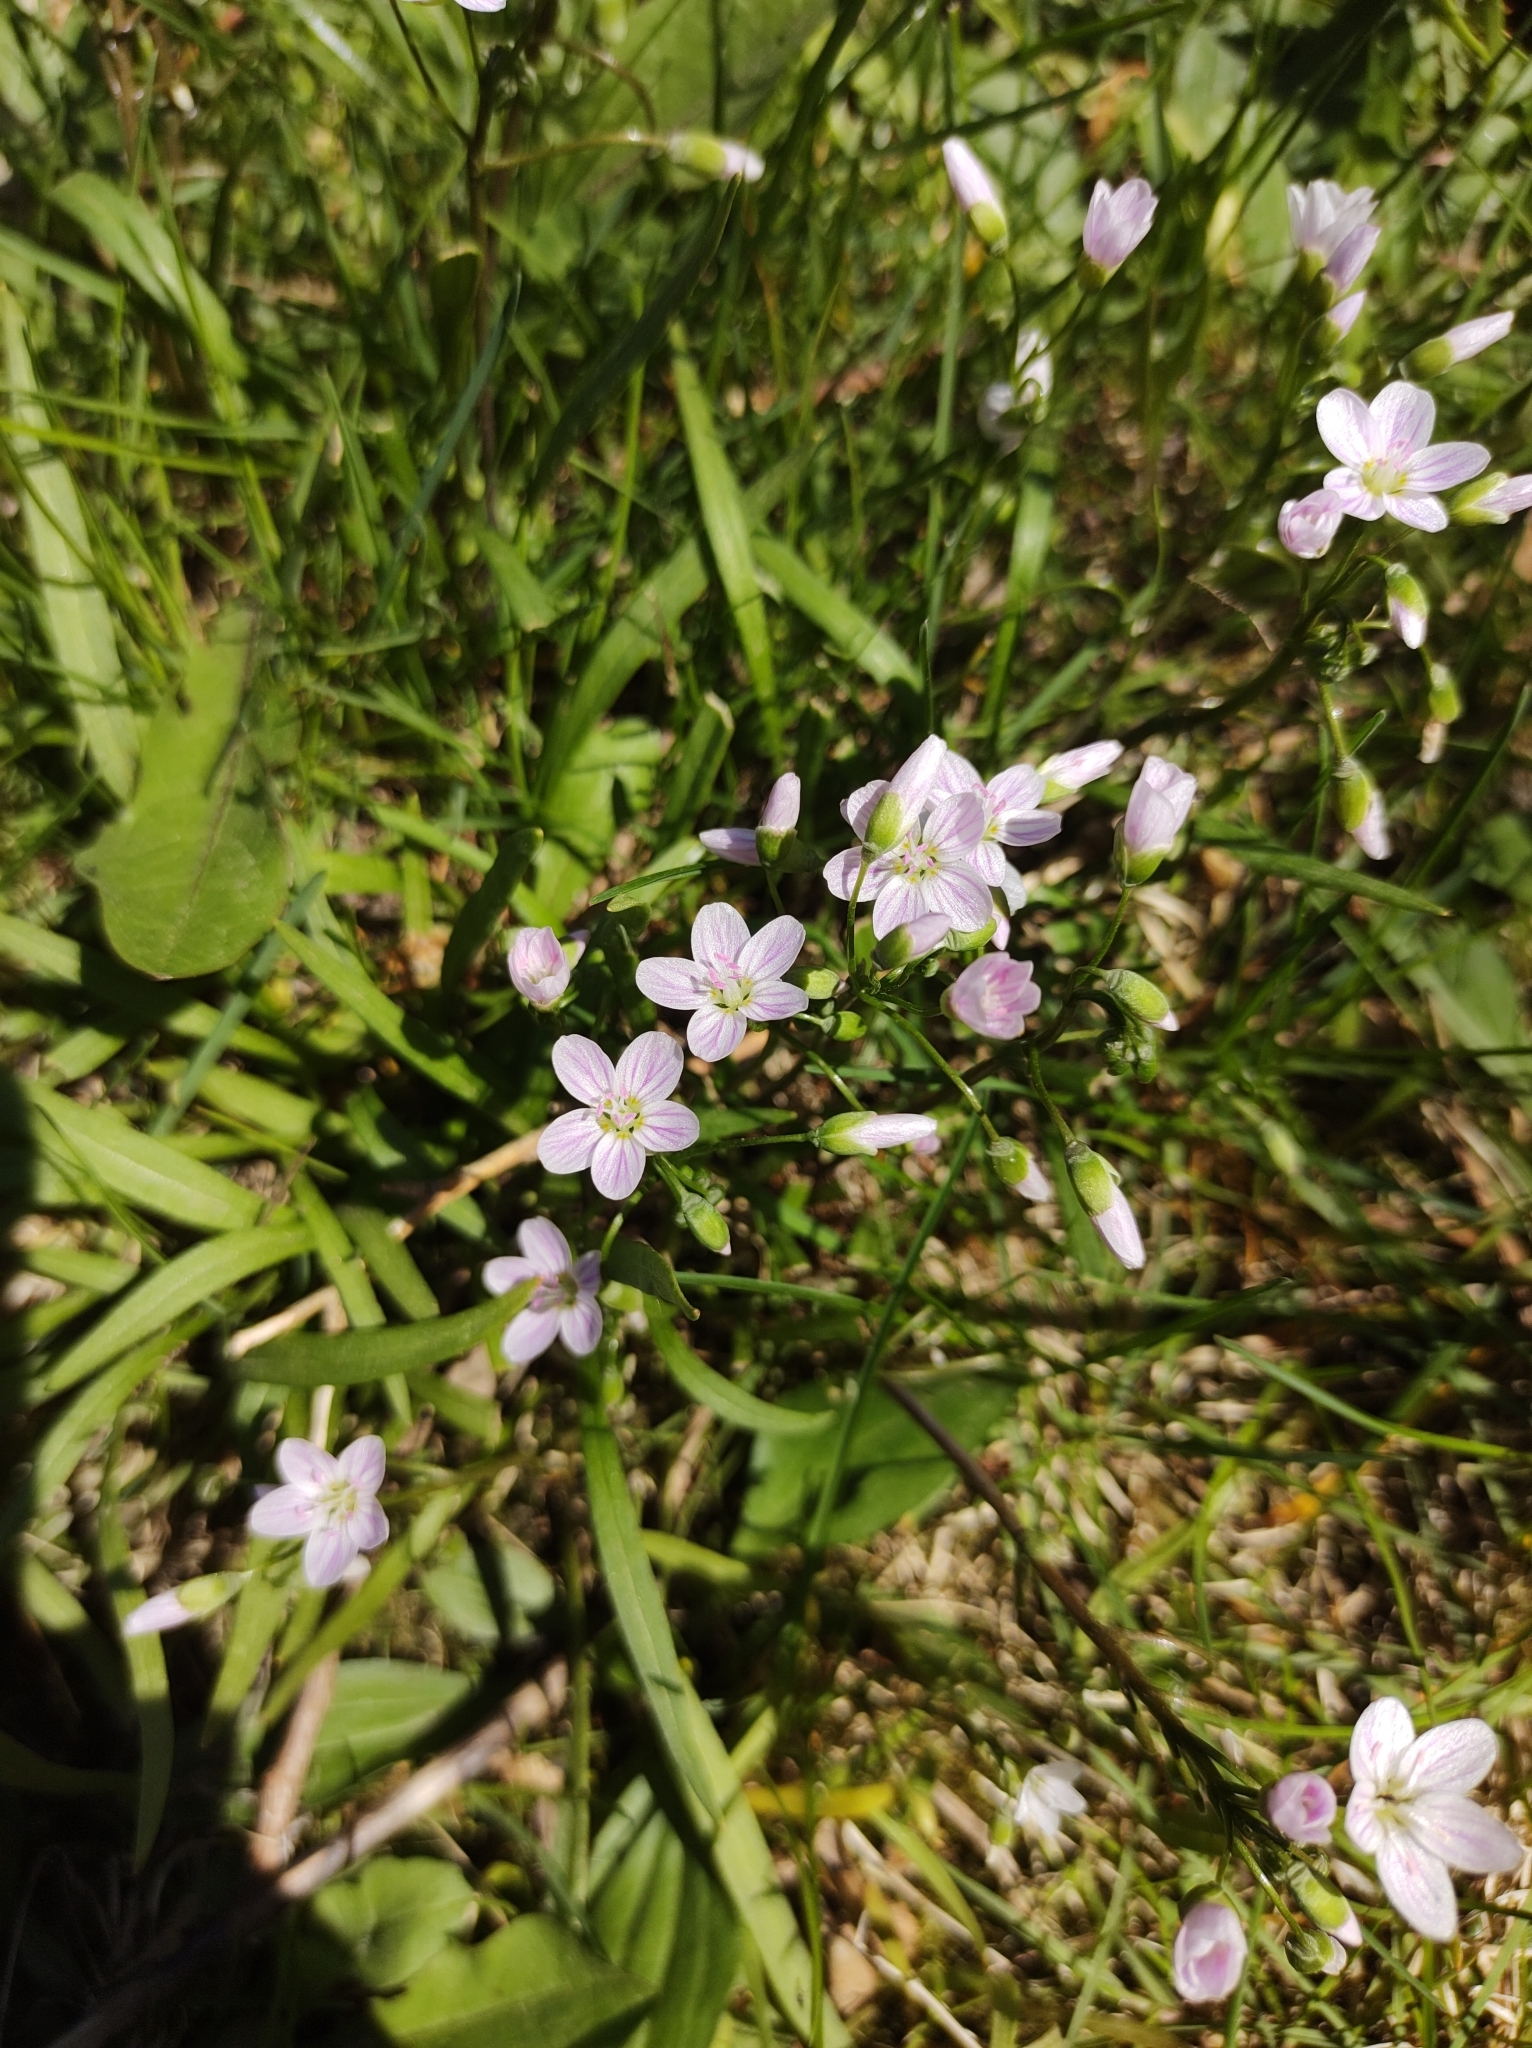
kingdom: Plantae
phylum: Tracheophyta
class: Magnoliopsida
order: Caryophyllales
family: Montiaceae
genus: Claytonia
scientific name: Claytonia virginica
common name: Virginia springbeauty
